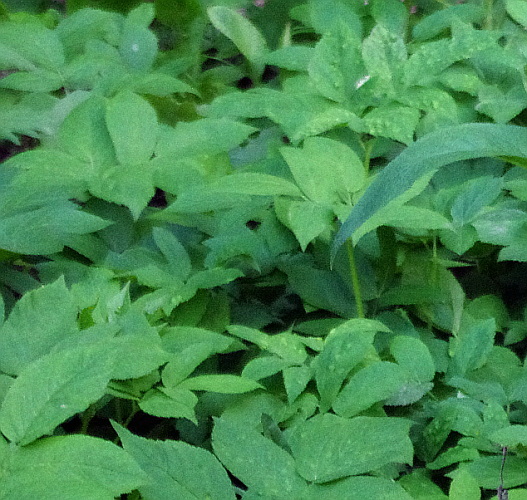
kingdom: Plantae
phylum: Tracheophyta
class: Magnoliopsida
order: Apiales
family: Apiaceae
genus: Aegopodium
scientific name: Aegopodium podagraria
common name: Ground-elder
